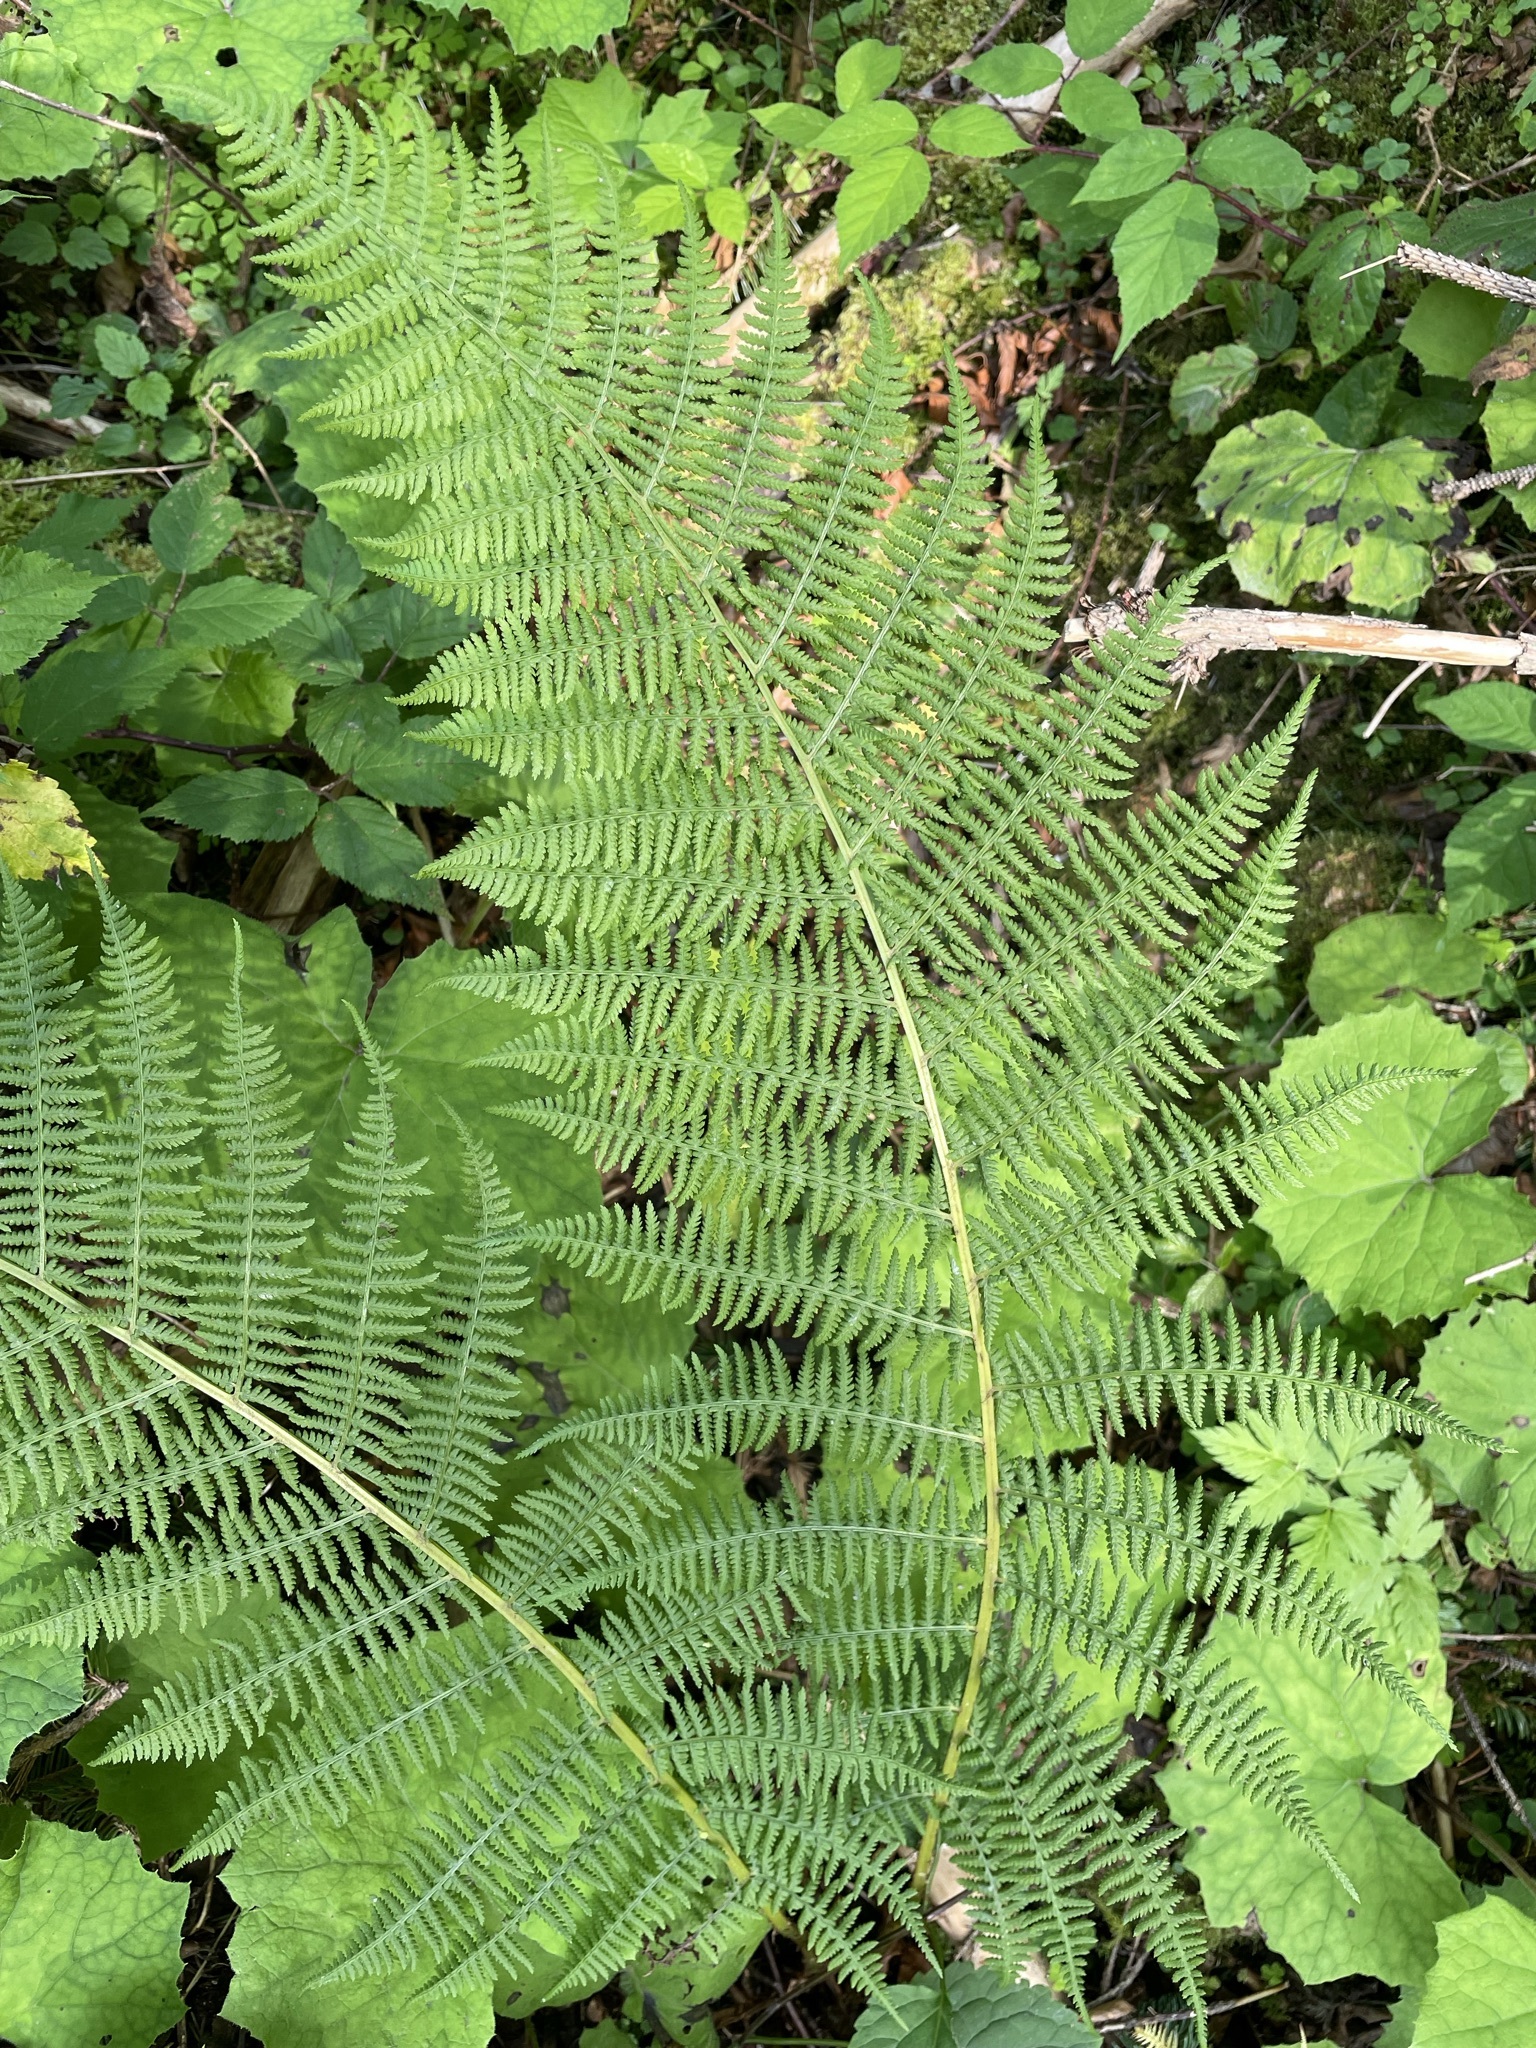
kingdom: Plantae
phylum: Tracheophyta
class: Polypodiopsida
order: Polypodiales
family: Athyriaceae
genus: Athyrium
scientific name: Athyrium filix-femina
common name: Lady fern
